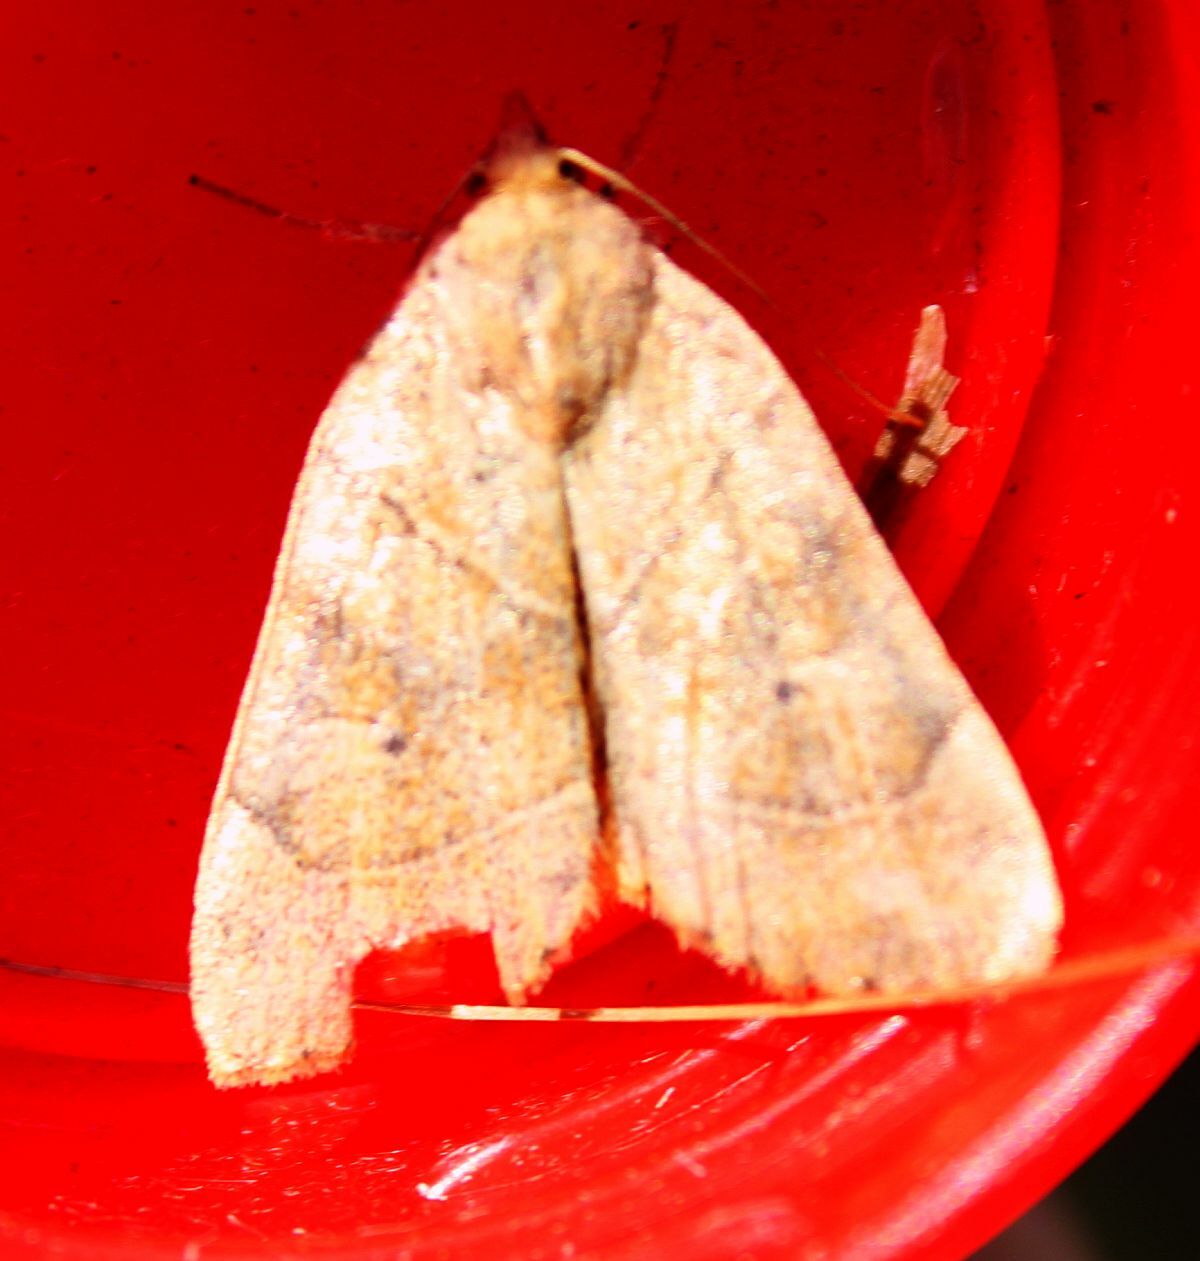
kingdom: Animalia
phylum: Arthropoda
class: Insecta
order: Lepidoptera
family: Noctuidae
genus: Cosmia
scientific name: Cosmia trapezina
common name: Dun-bar
